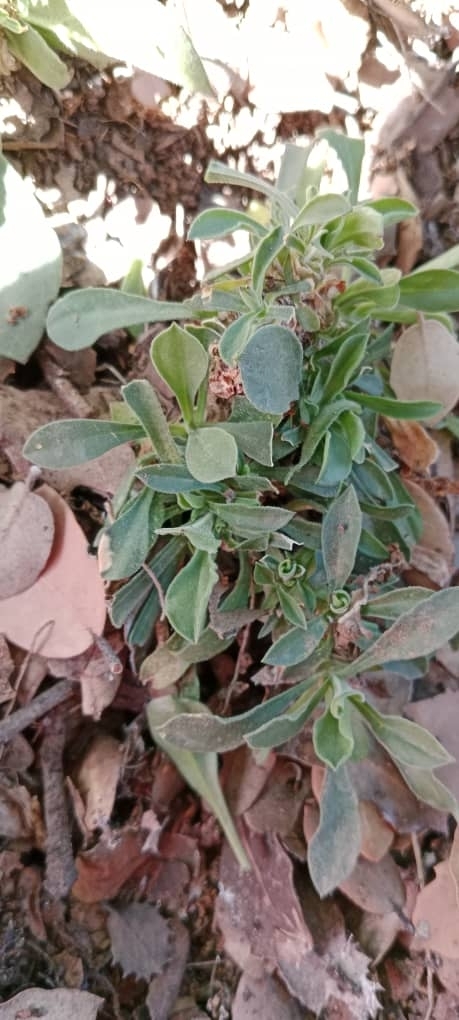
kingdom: Plantae
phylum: Tracheophyta
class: Magnoliopsida
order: Caryophyllales
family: Caryophyllaceae
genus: Silene
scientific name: Silene patula
